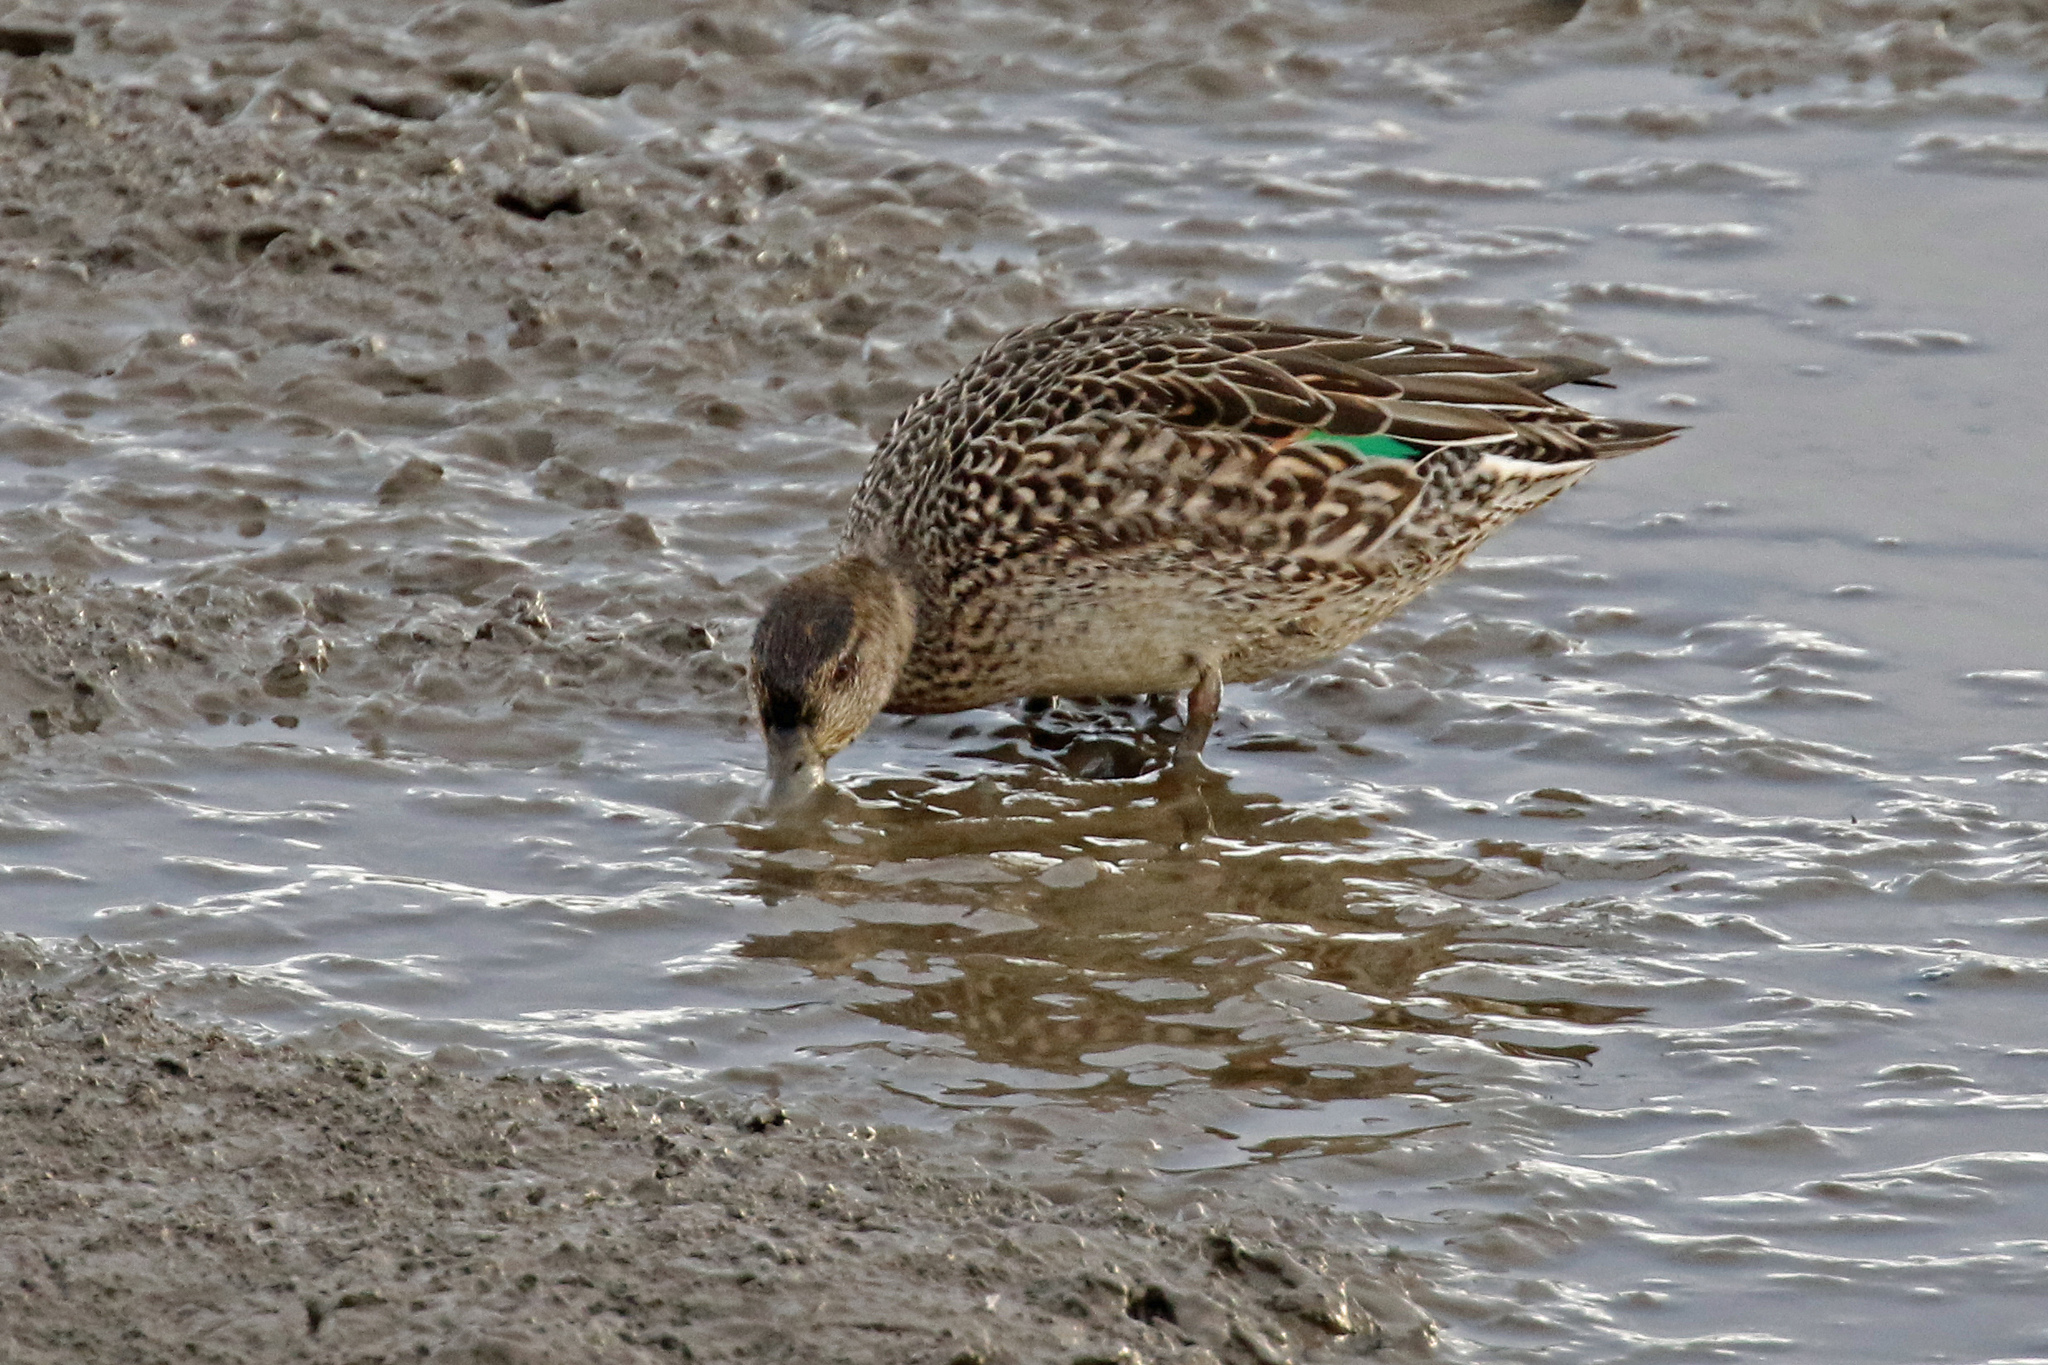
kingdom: Animalia
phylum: Chordata
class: Aves
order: Anseriformes
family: Anatidae
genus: Anas
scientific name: Anas crecca
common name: Eurasian teal
